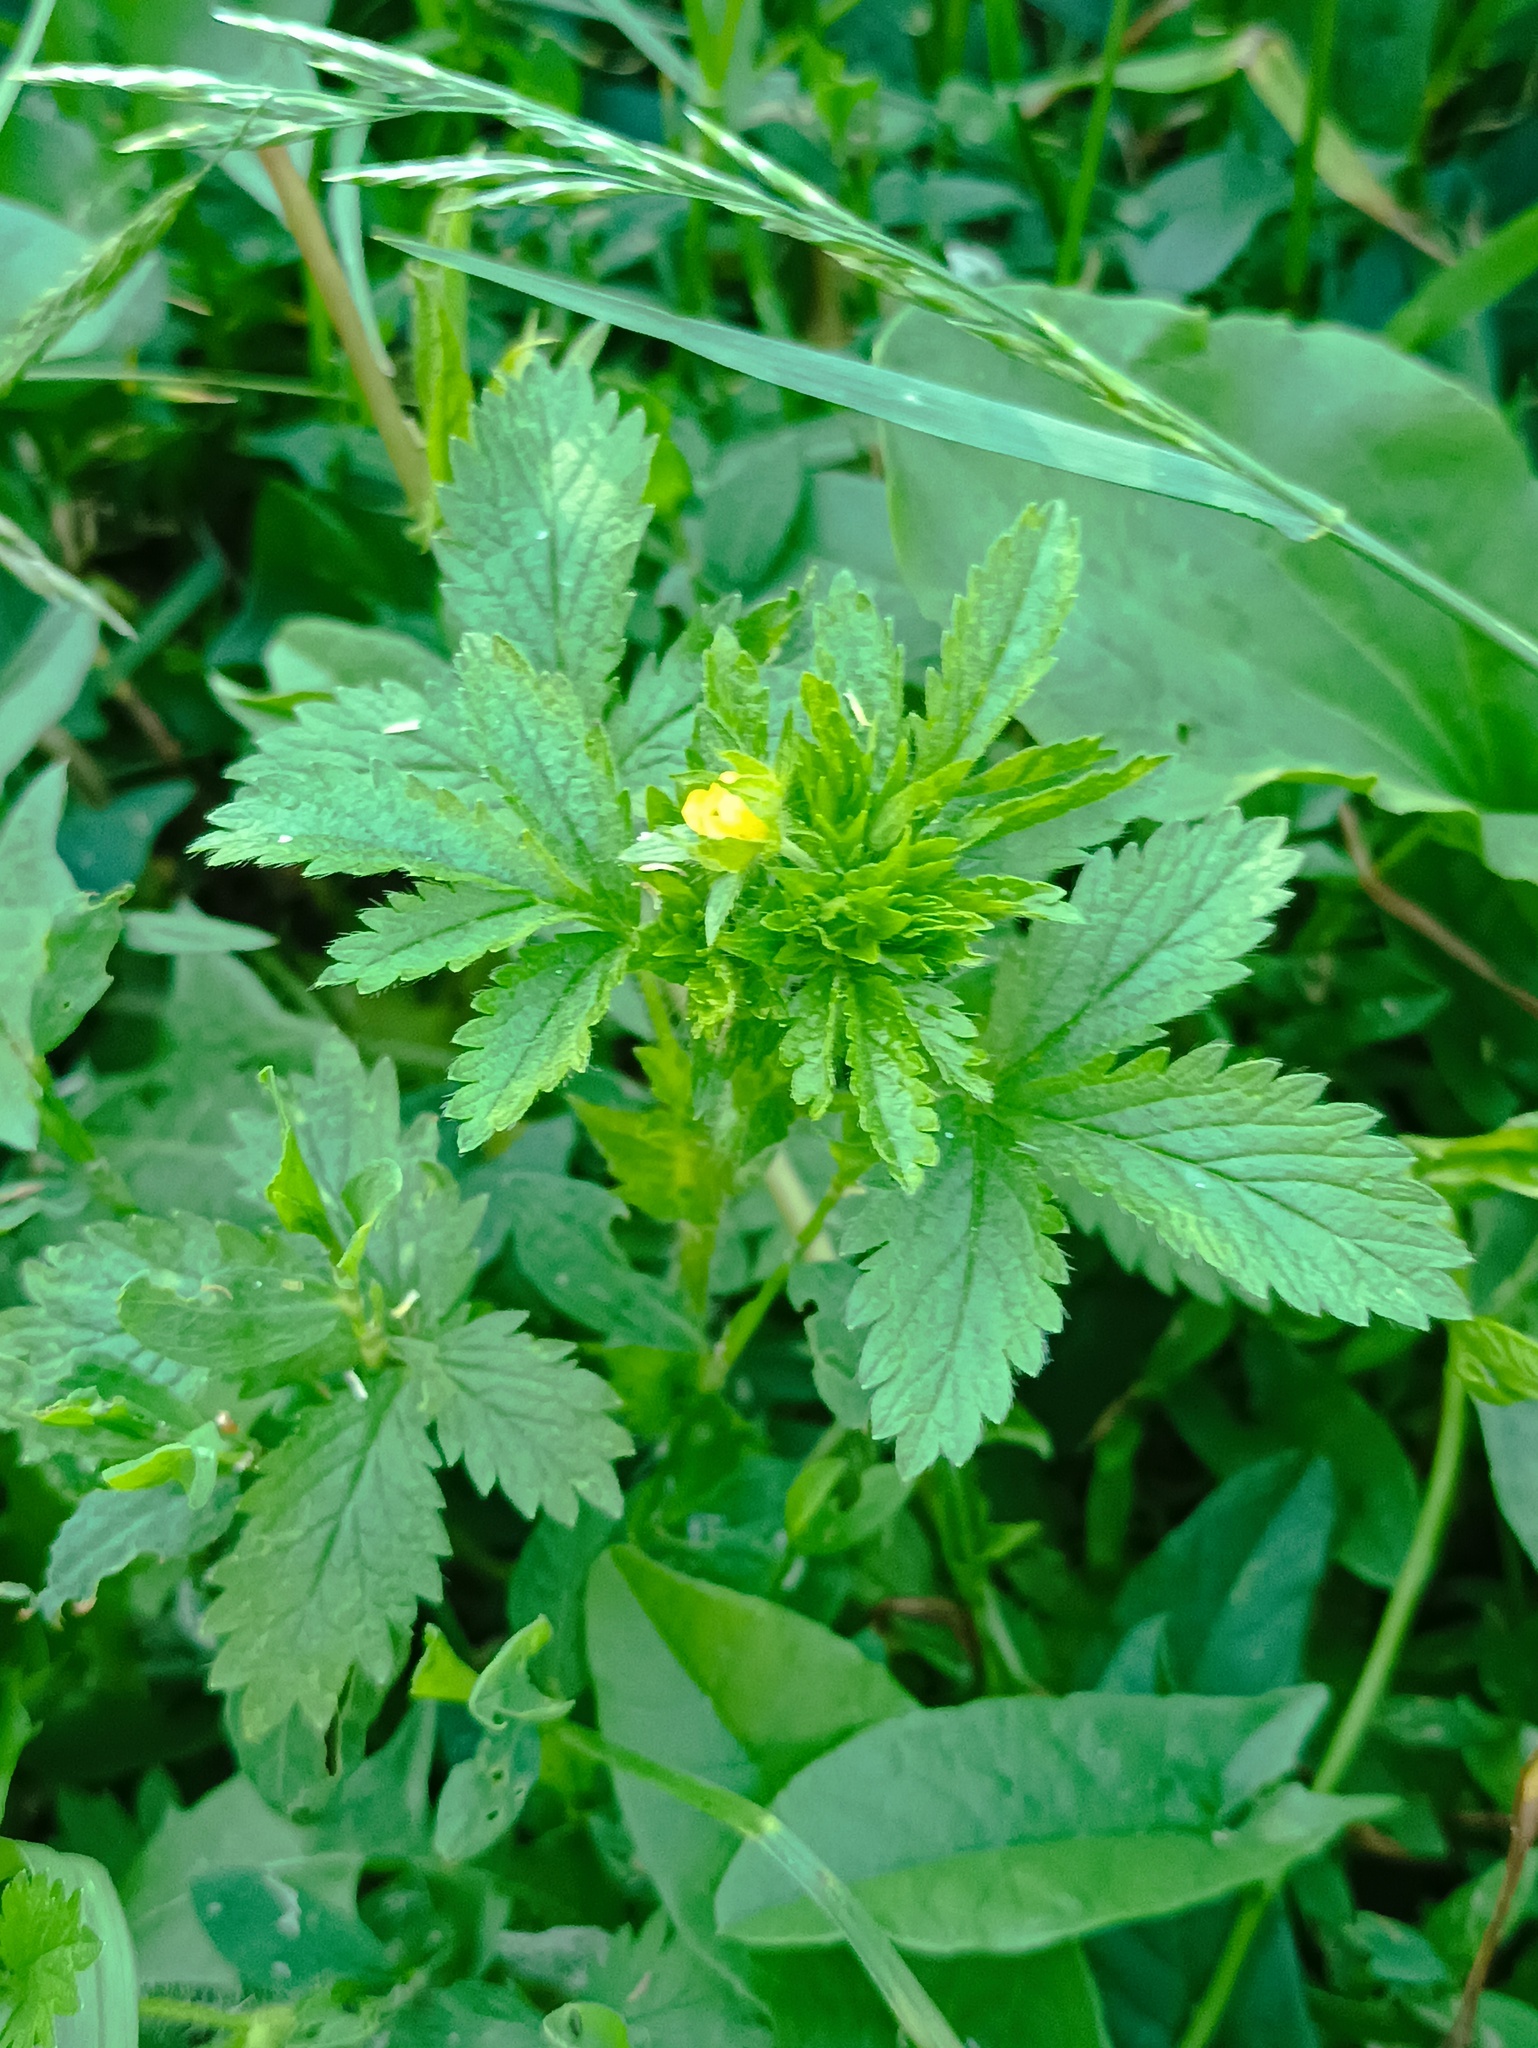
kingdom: Plantae
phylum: Tracheophyta
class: Magnoliopsida
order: Rosales
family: Rosaceae
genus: Potentilla
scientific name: Potentilla norvegica
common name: Ternate-leaved cinquefoil
